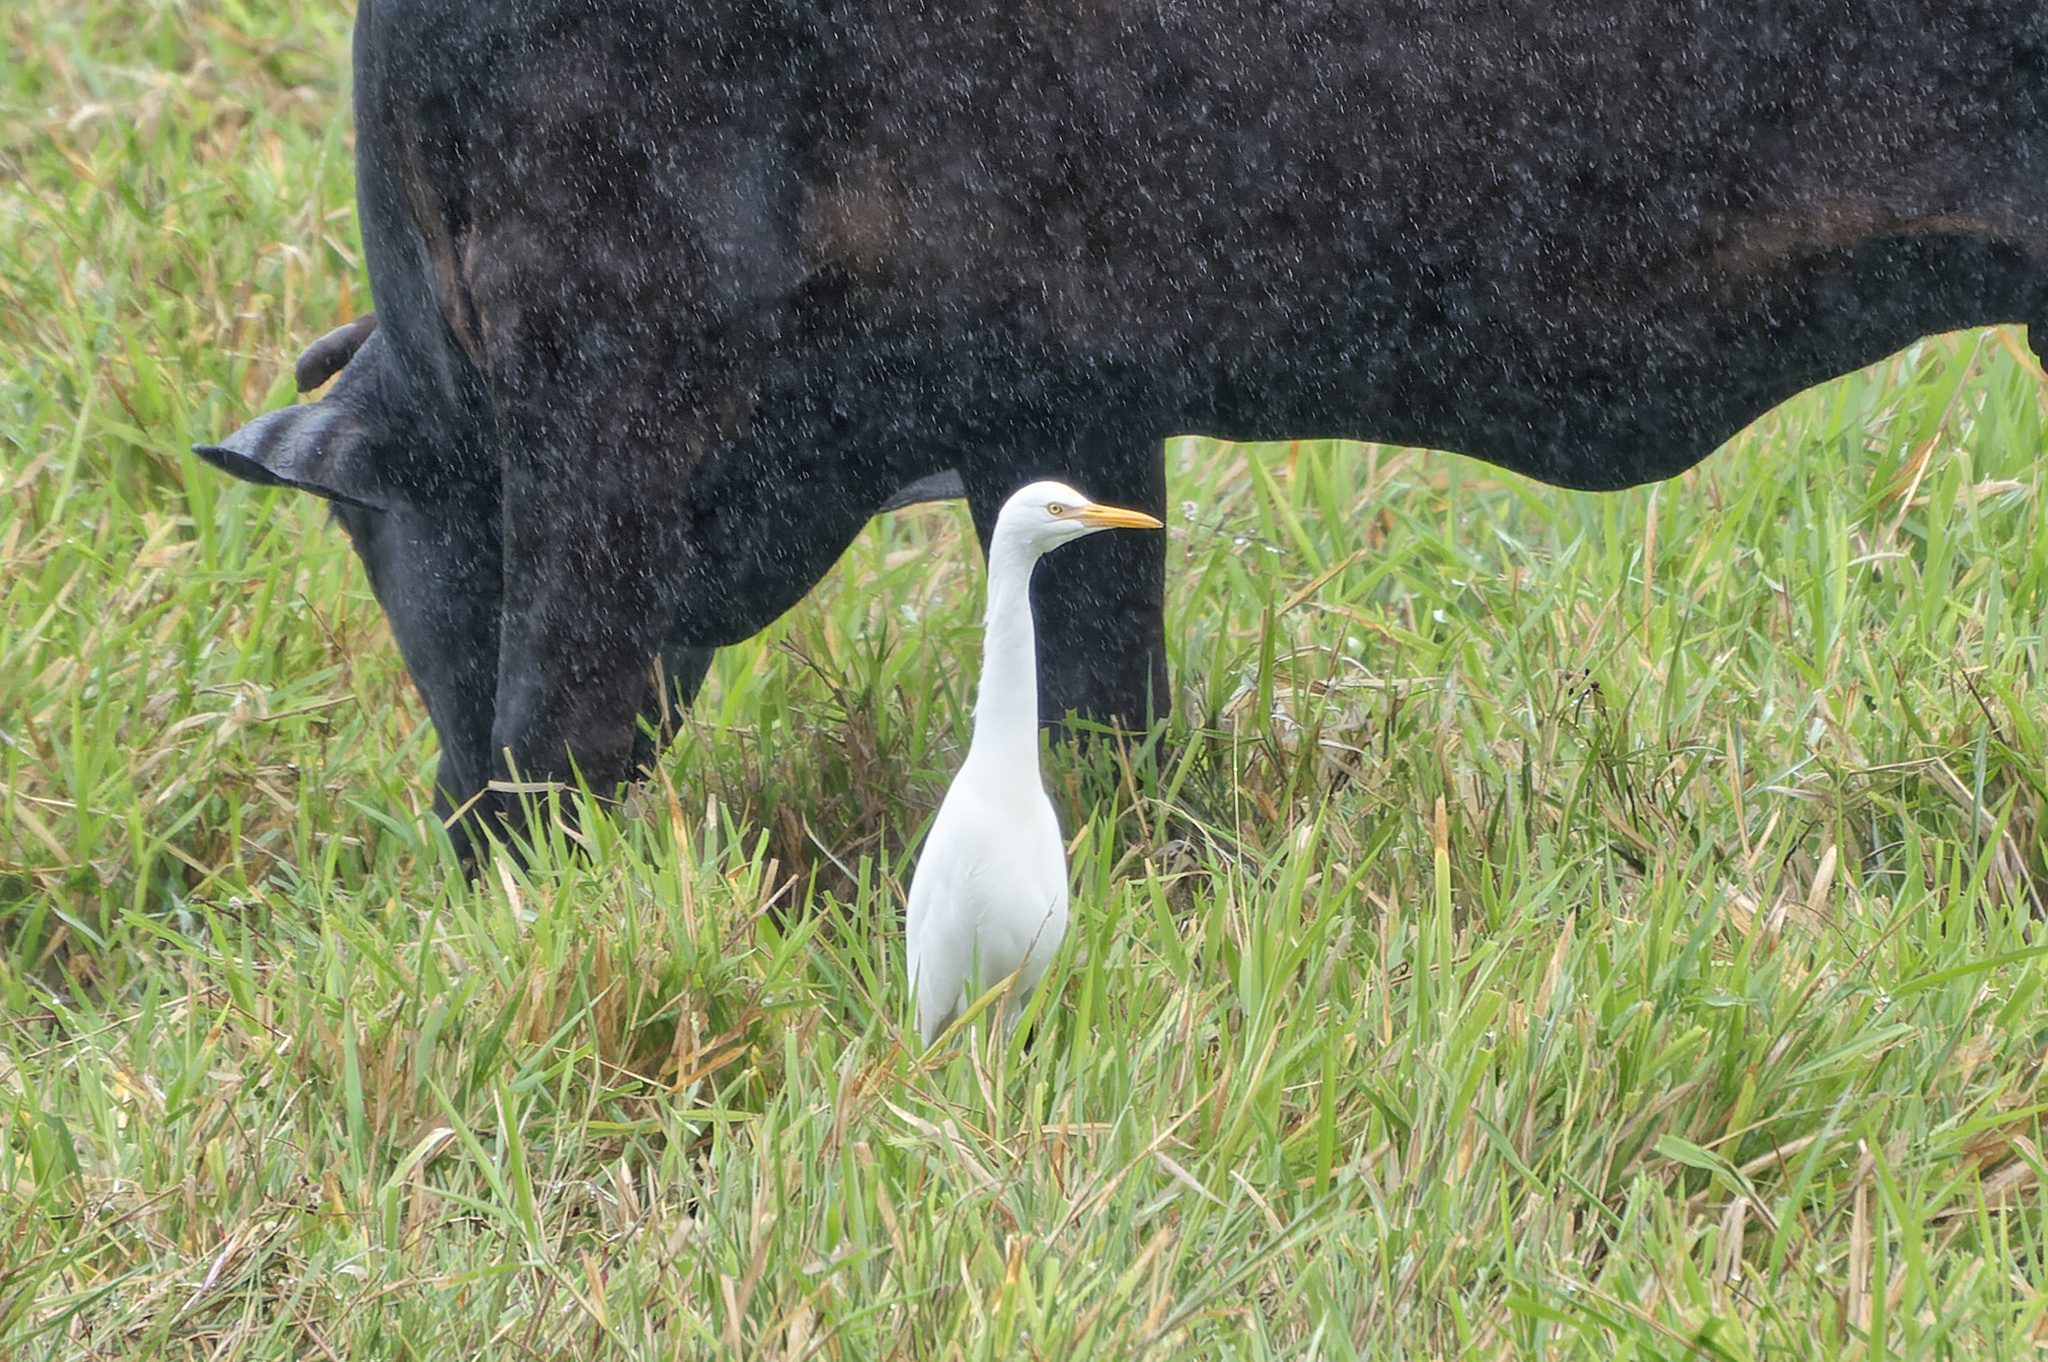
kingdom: Animalia
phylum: Chordata
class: Aves
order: Pelecaniformes
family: Ardeidae
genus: Bubulcus
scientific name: Bubulcus coromandus
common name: Eastern cattle egret
